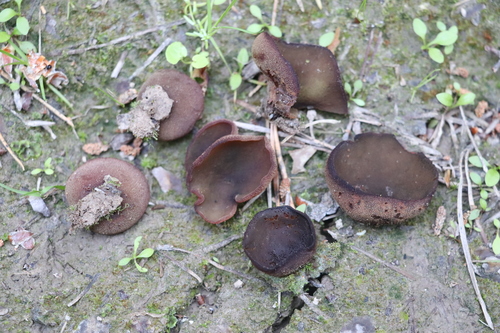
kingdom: Fungi
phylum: Ascomycota
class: Pezizomycetes
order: Pezizales
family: Pezizaceae
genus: Legaliana
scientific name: Legaliana
